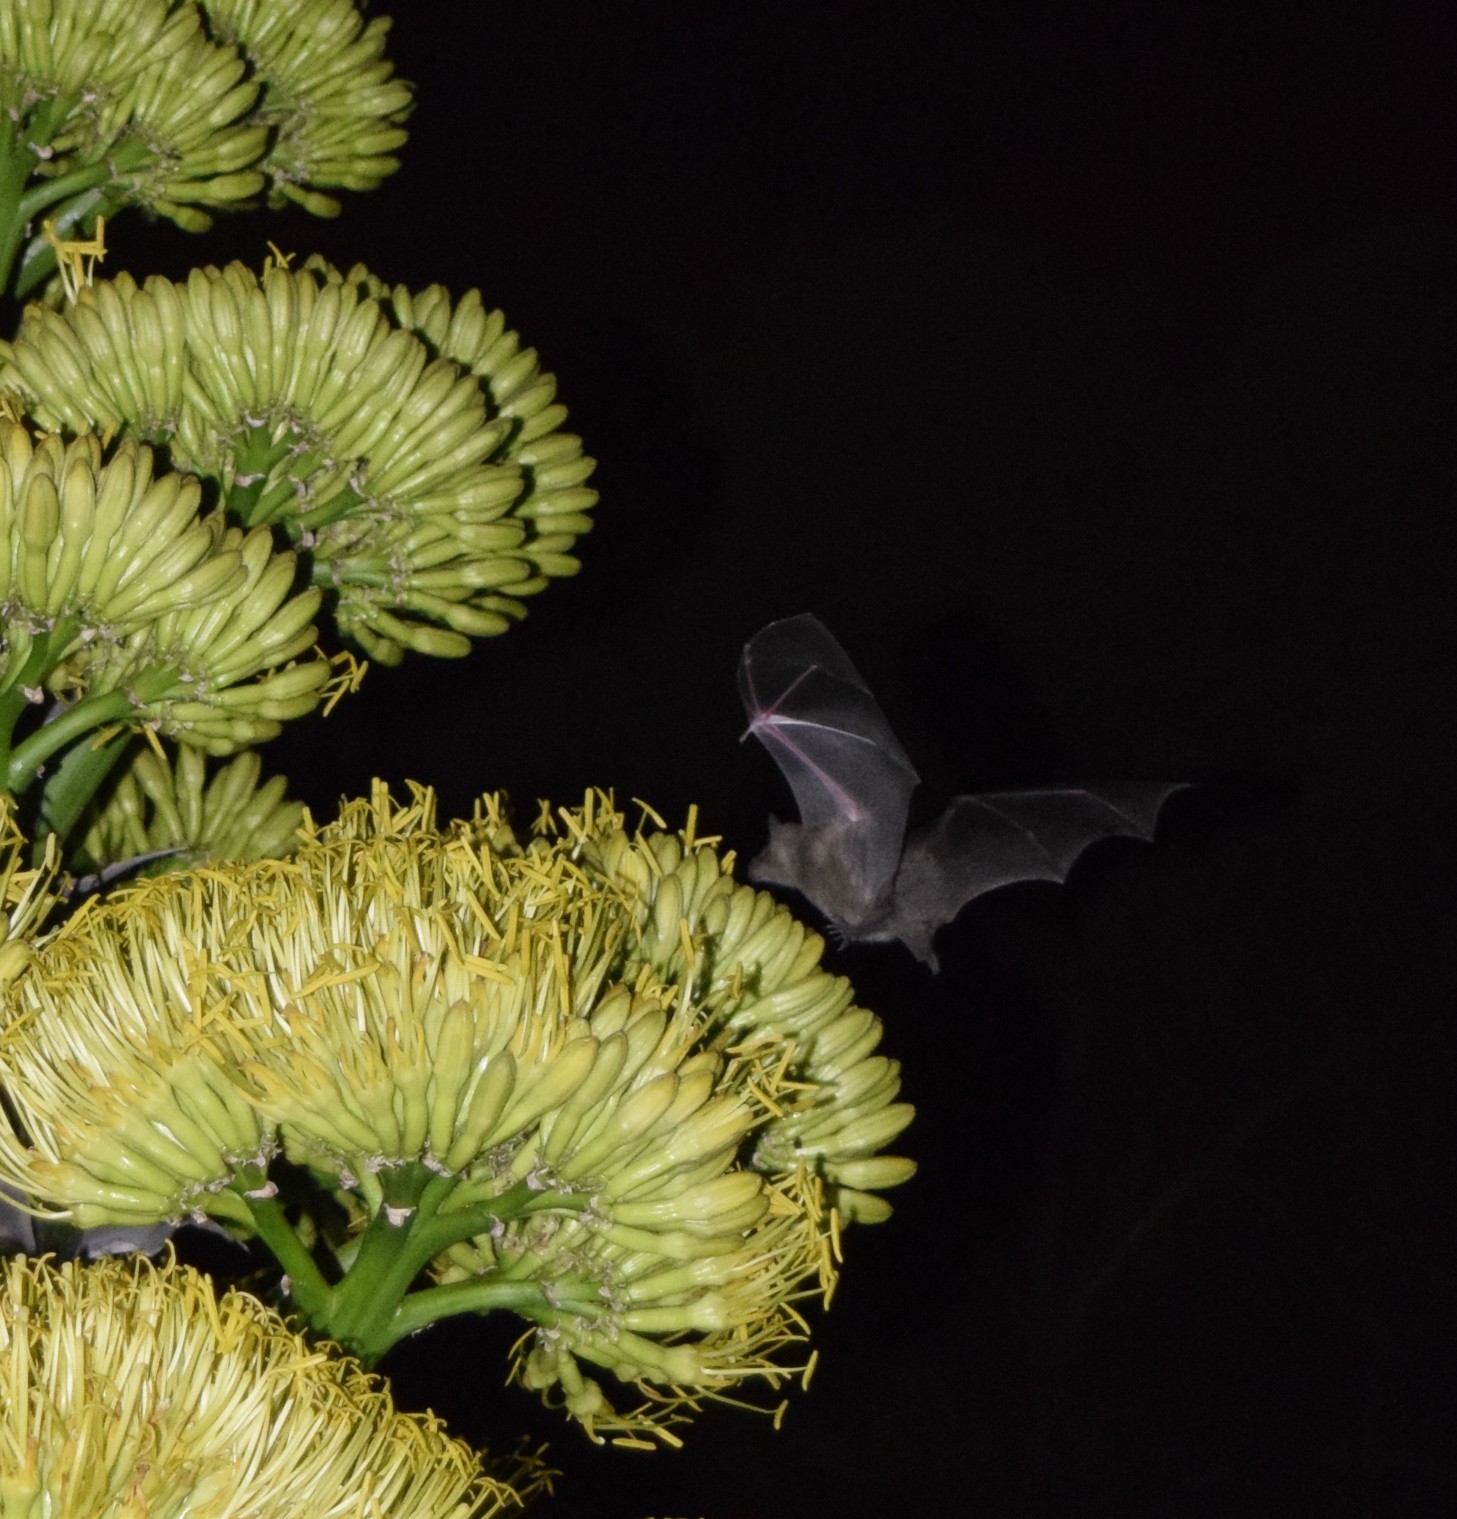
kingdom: Animalia
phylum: Chordata
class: Mammalia
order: Chiroptera
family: Phyllostomidae
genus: Leptonycteris
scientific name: Leptonycteris nivalis
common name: Greater long-nosed bat
